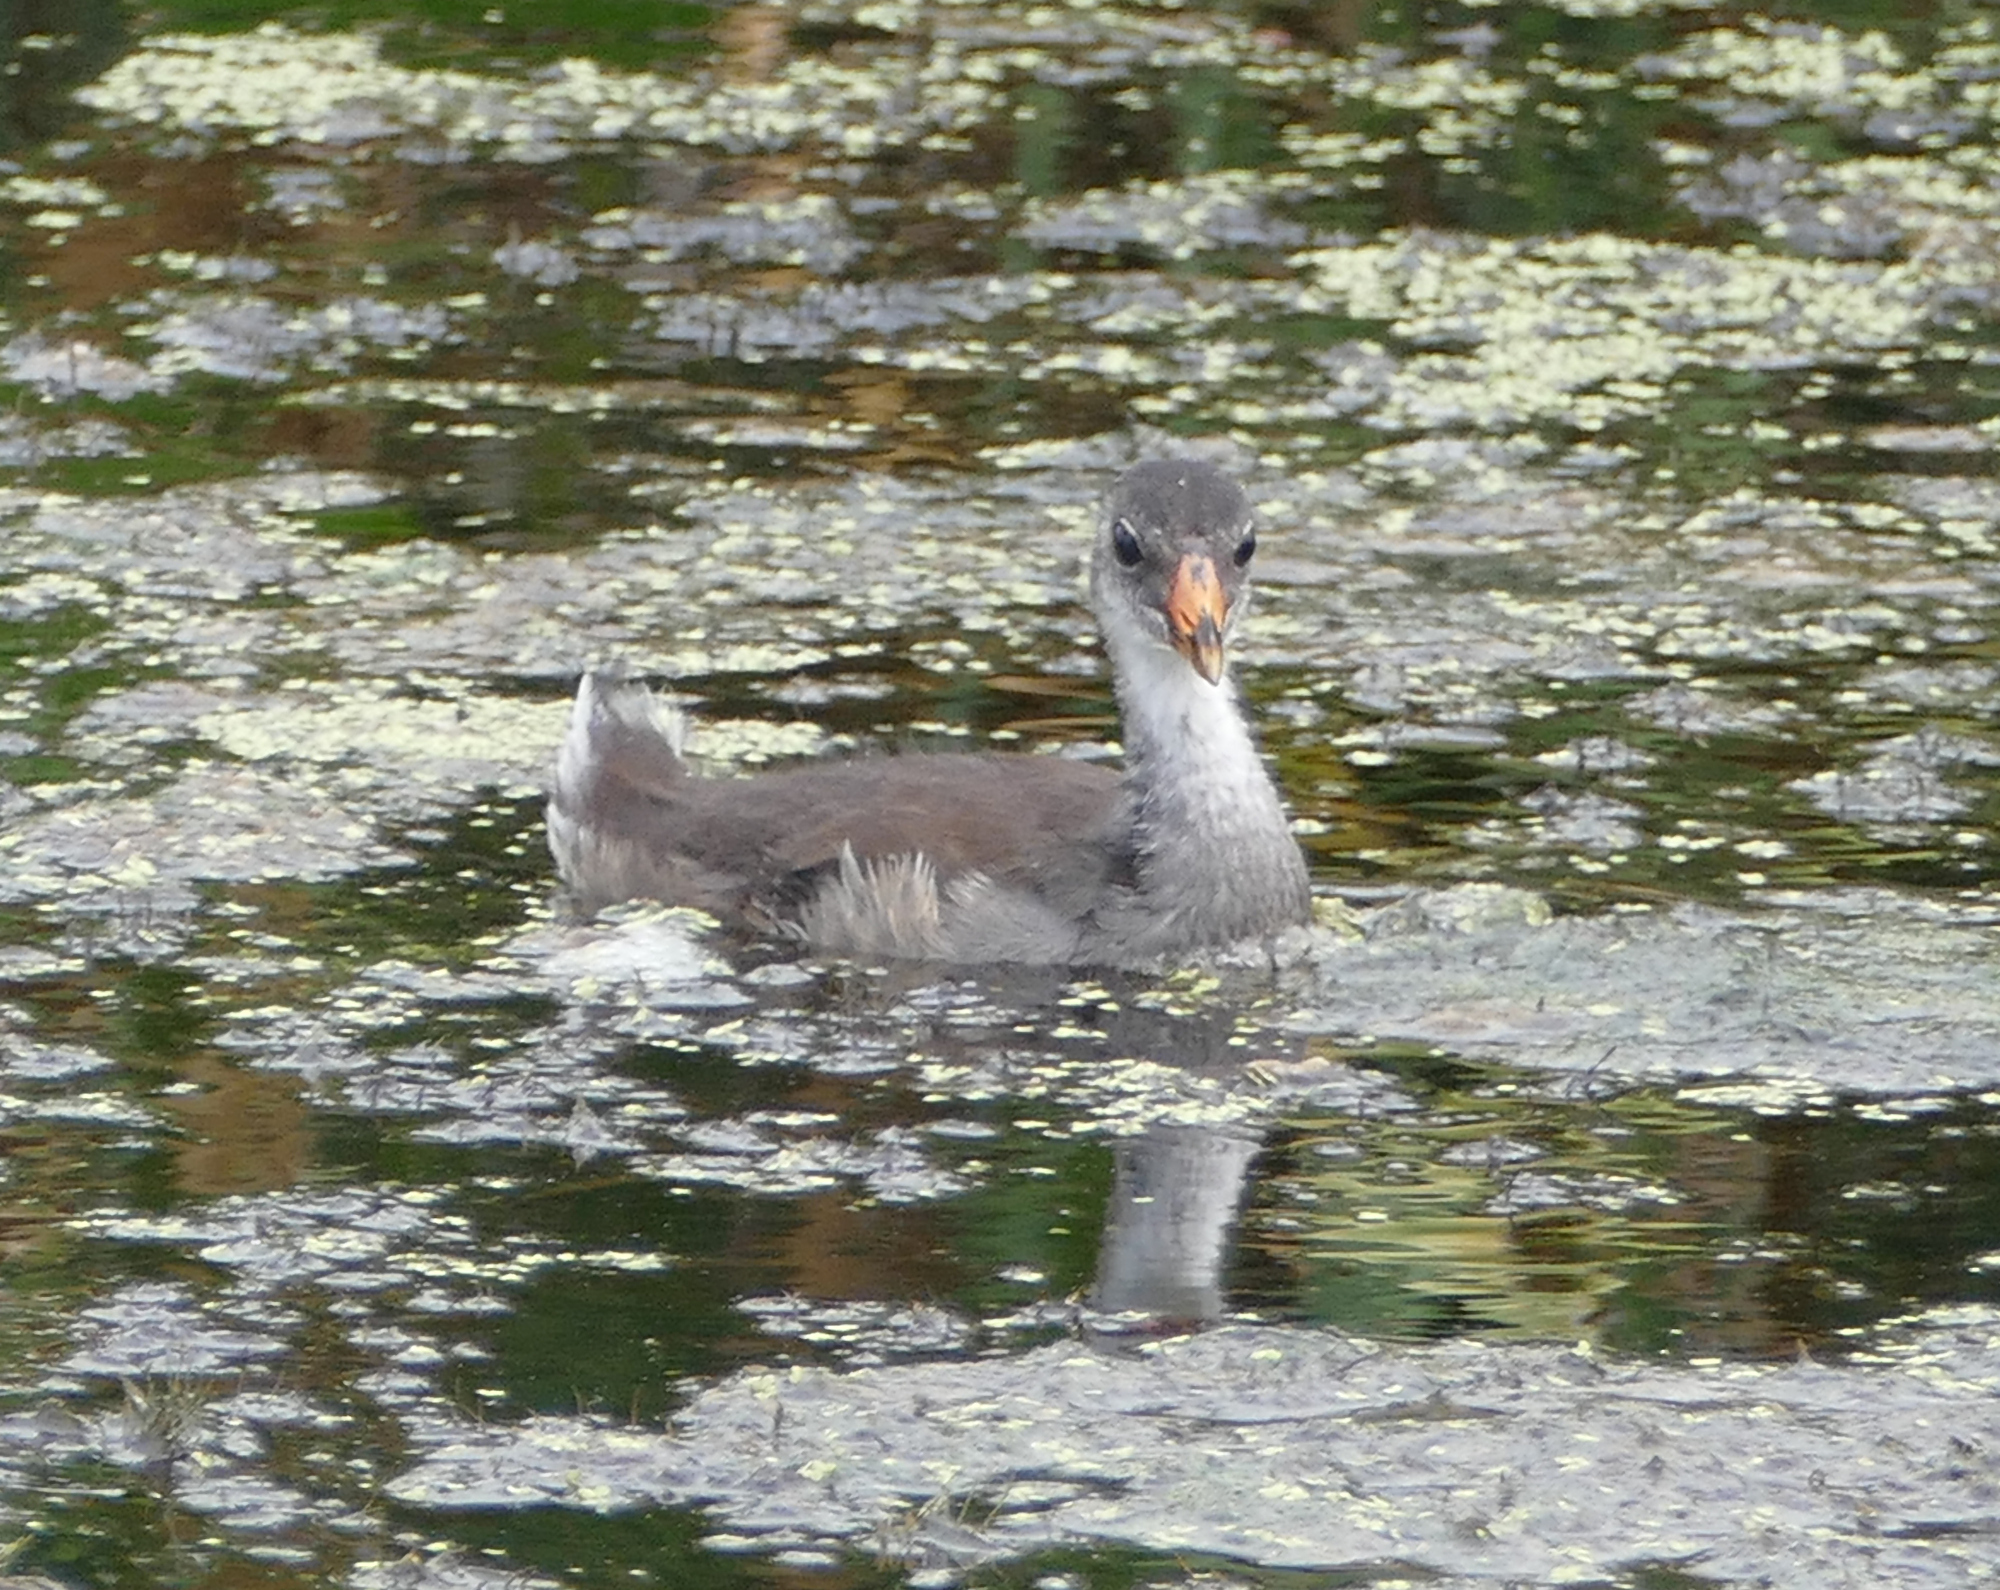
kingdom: Animalia
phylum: Chordata
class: Aves
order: Gruiformes
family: Rallidae
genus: Gallinula
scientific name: Gallinula chloropus
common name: Common moorhen
